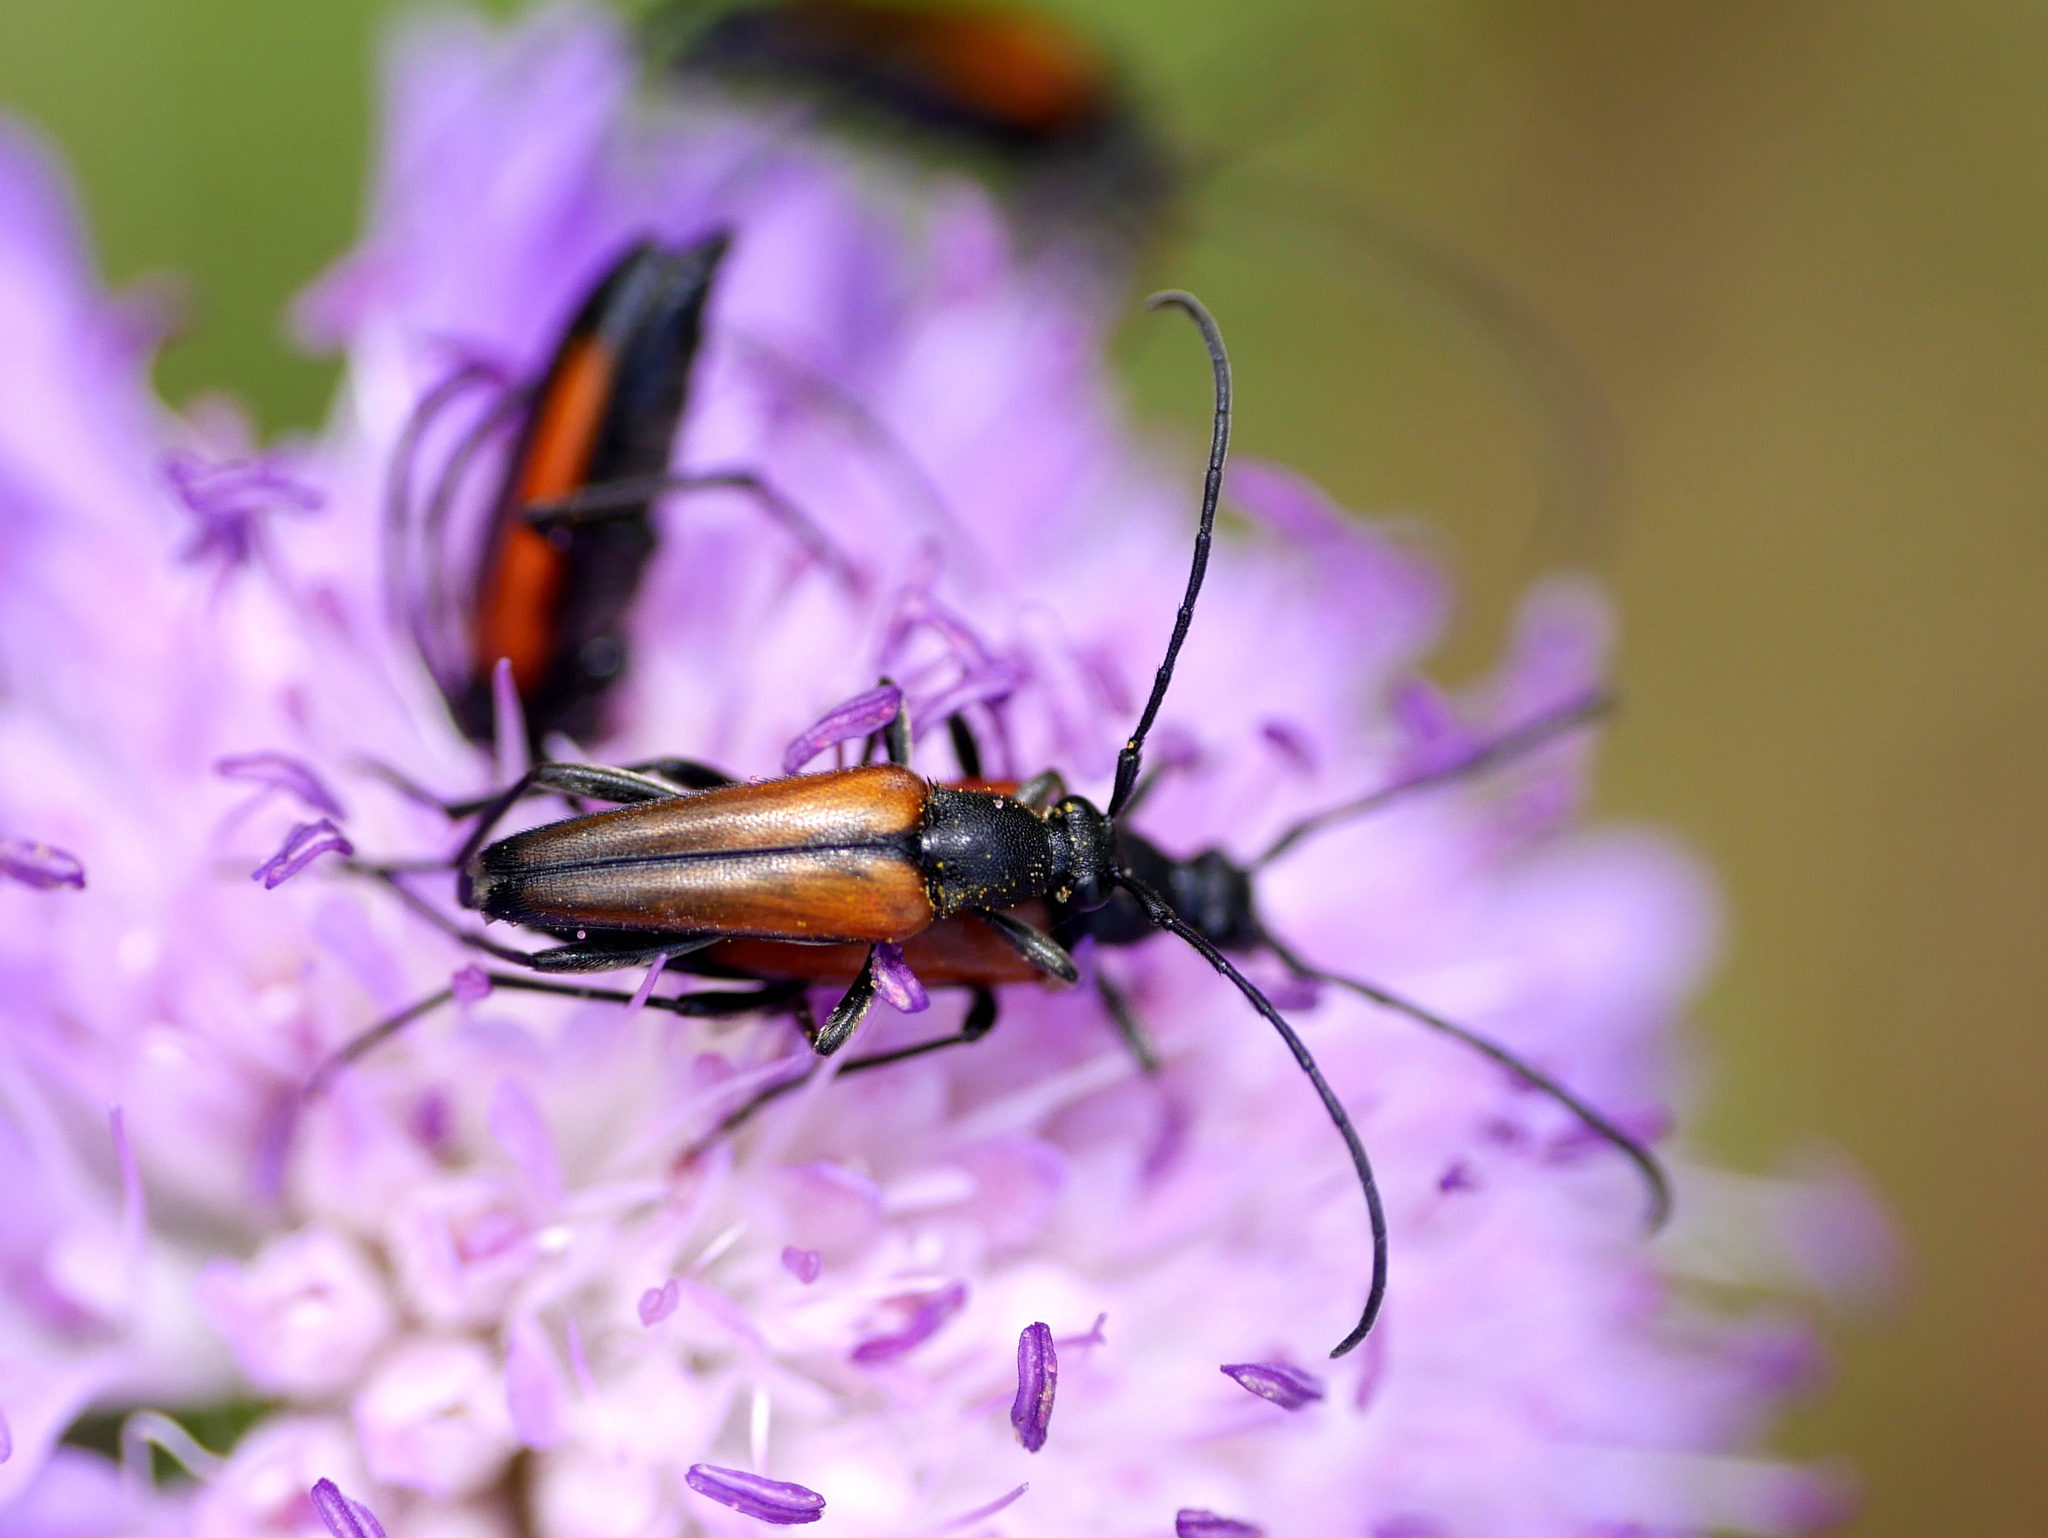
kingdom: Animalia
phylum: Arthropoda
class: Insecta
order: Coleoptera
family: Cerambycidae
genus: Stenurella
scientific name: Stenurella melanura
